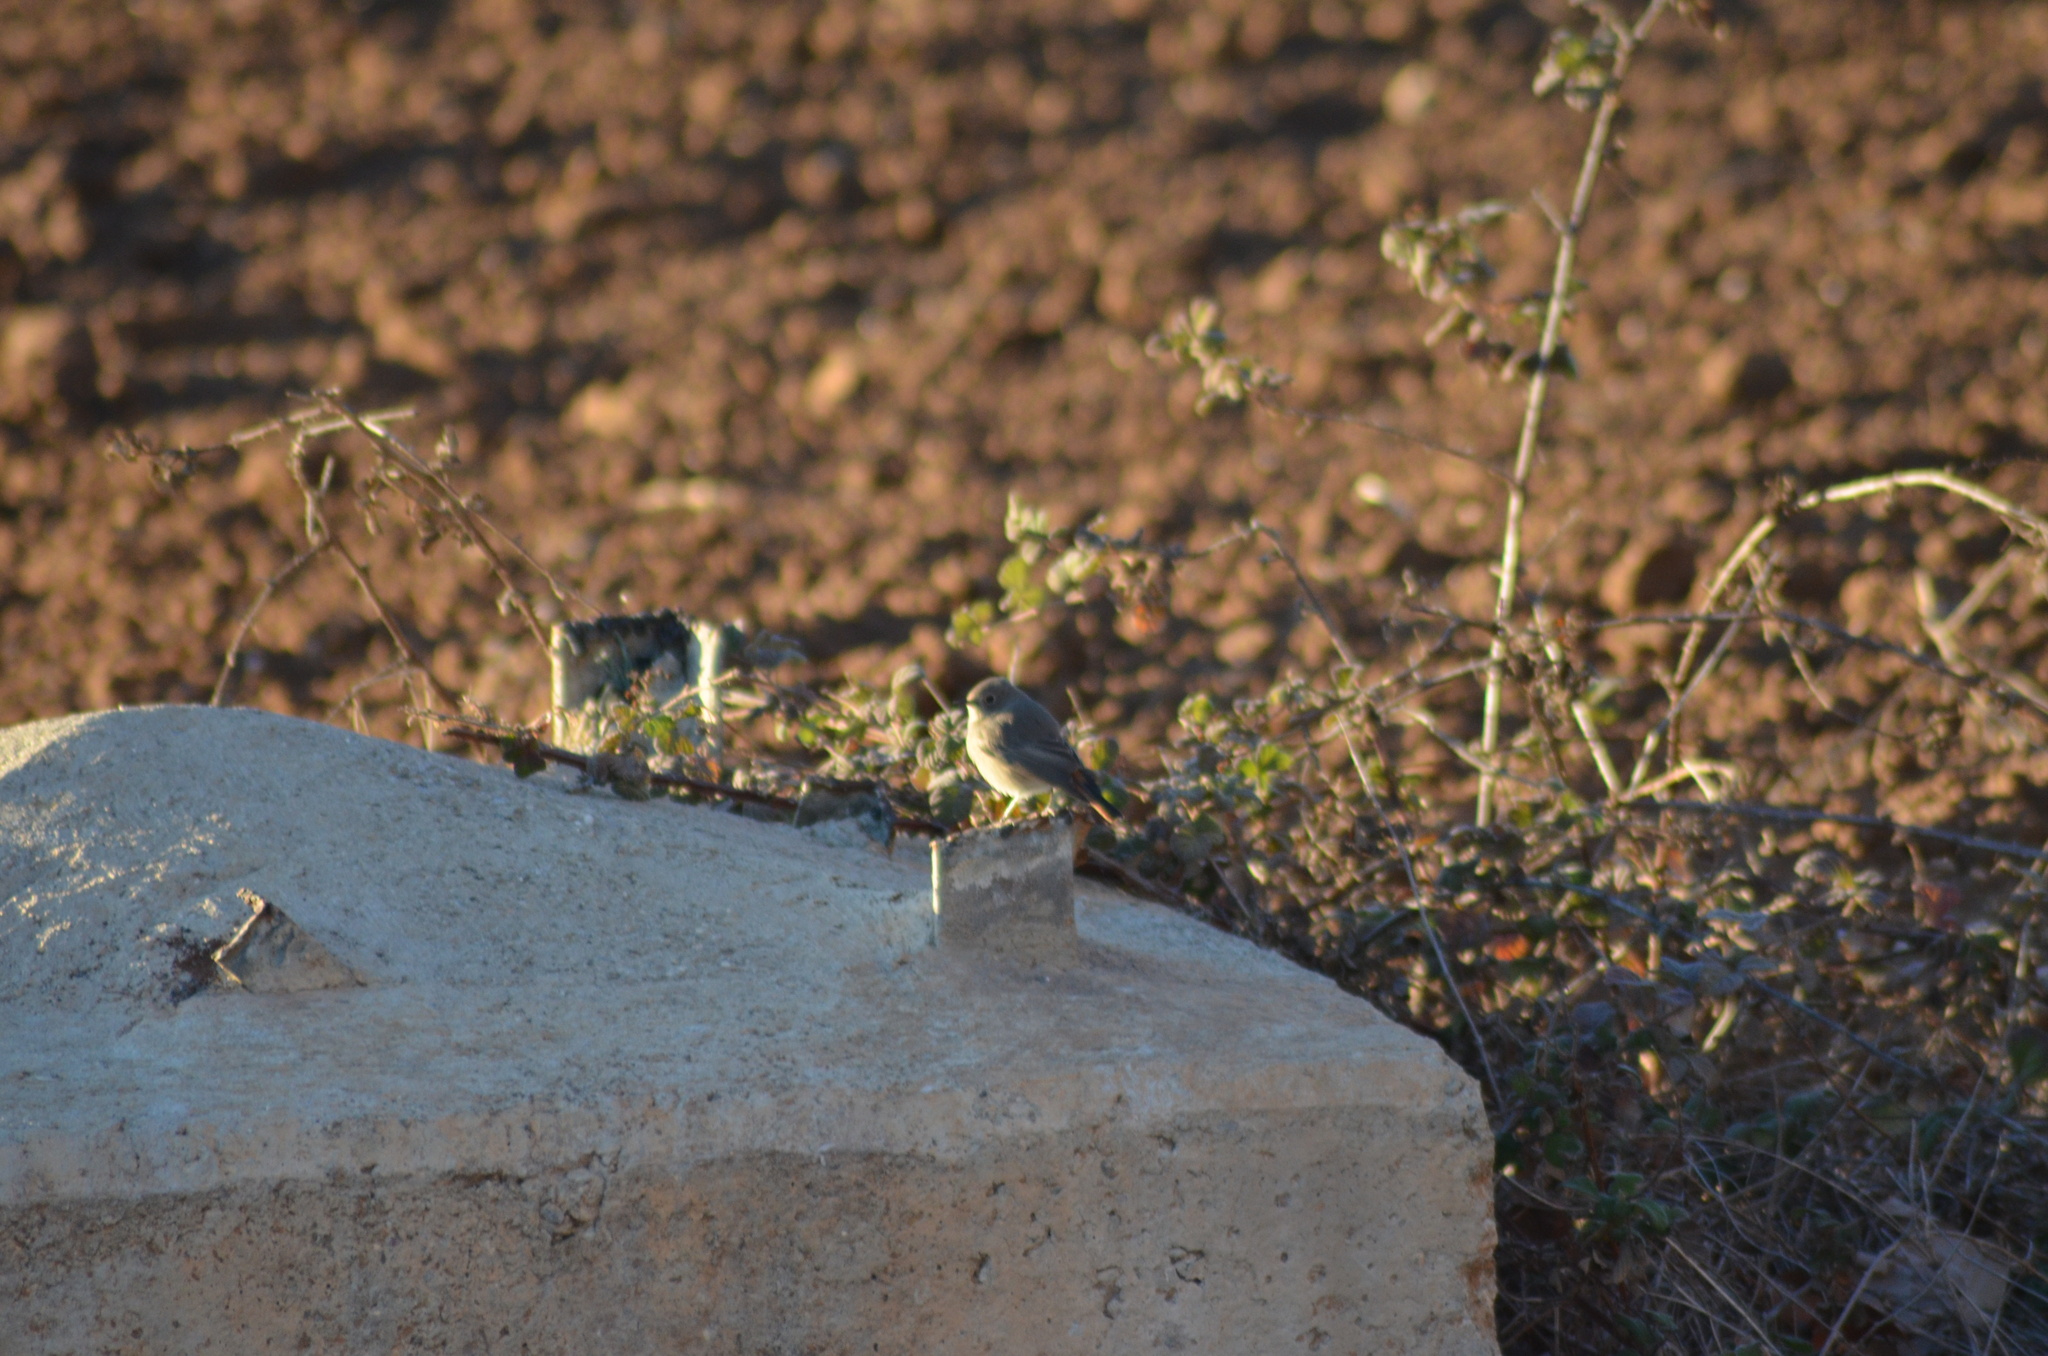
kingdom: Animalia
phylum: Chordata
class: Aves
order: Passeriformes
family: Muscicapidae
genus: Phoenicurus
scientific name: Phoenicurus ochruros
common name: Black redstart
